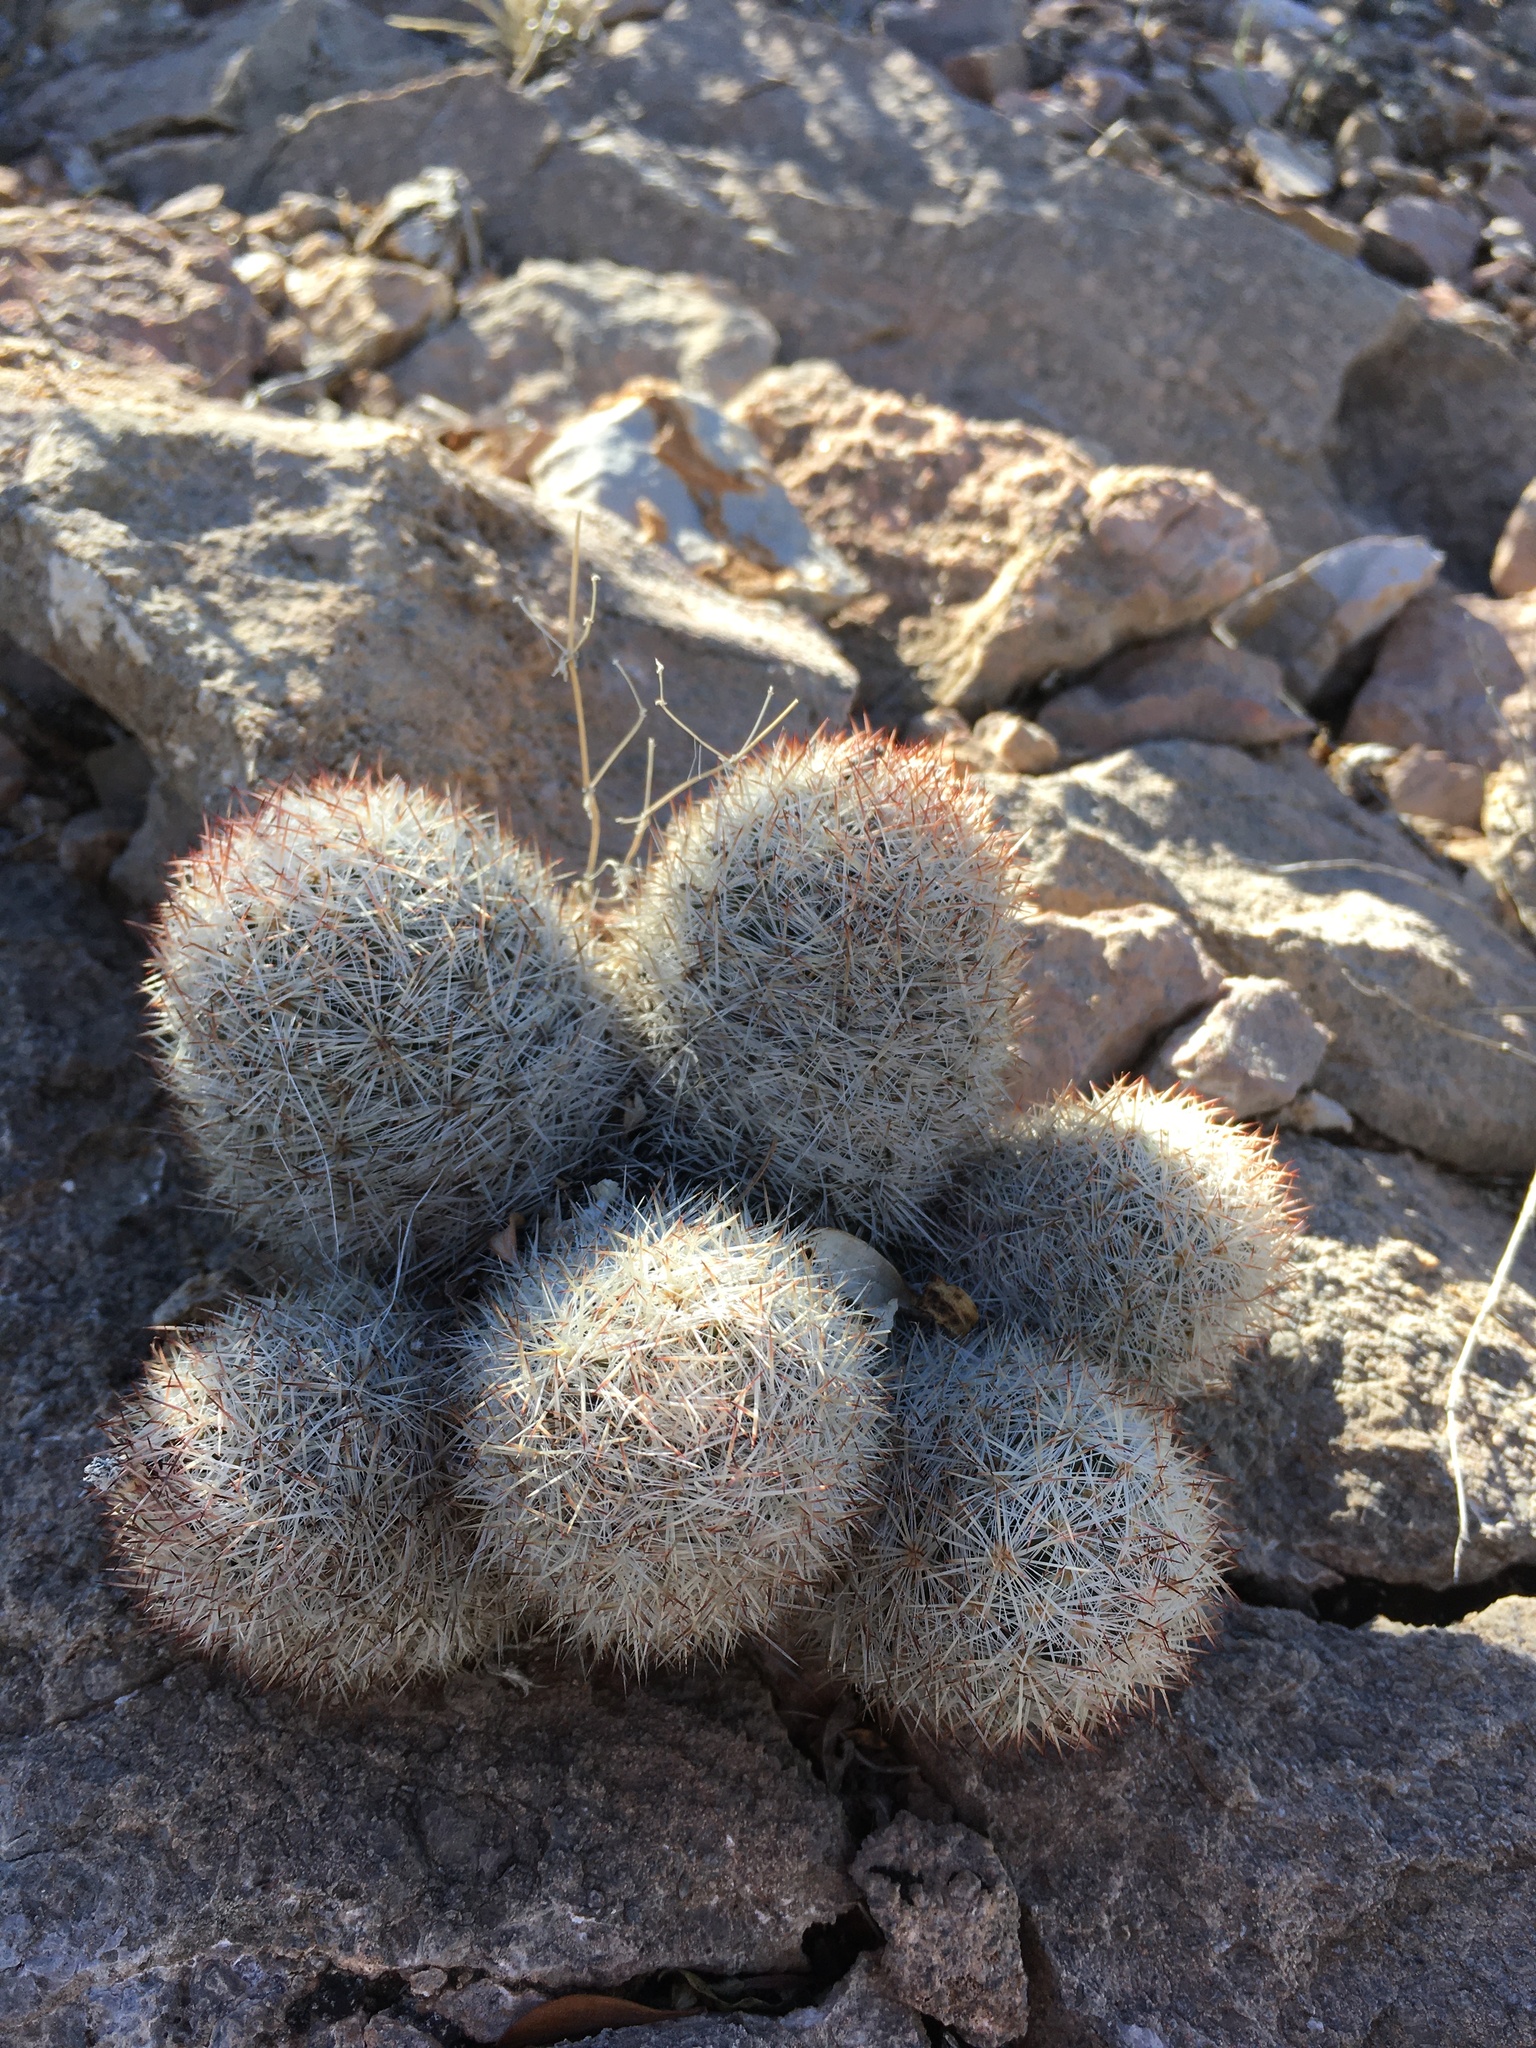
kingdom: Plantae
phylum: Tracheophyta
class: Magnoliopsida
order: Caryophyllales
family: Cactaceae
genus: Pelecyphora
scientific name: Pelecyphora sneedii
